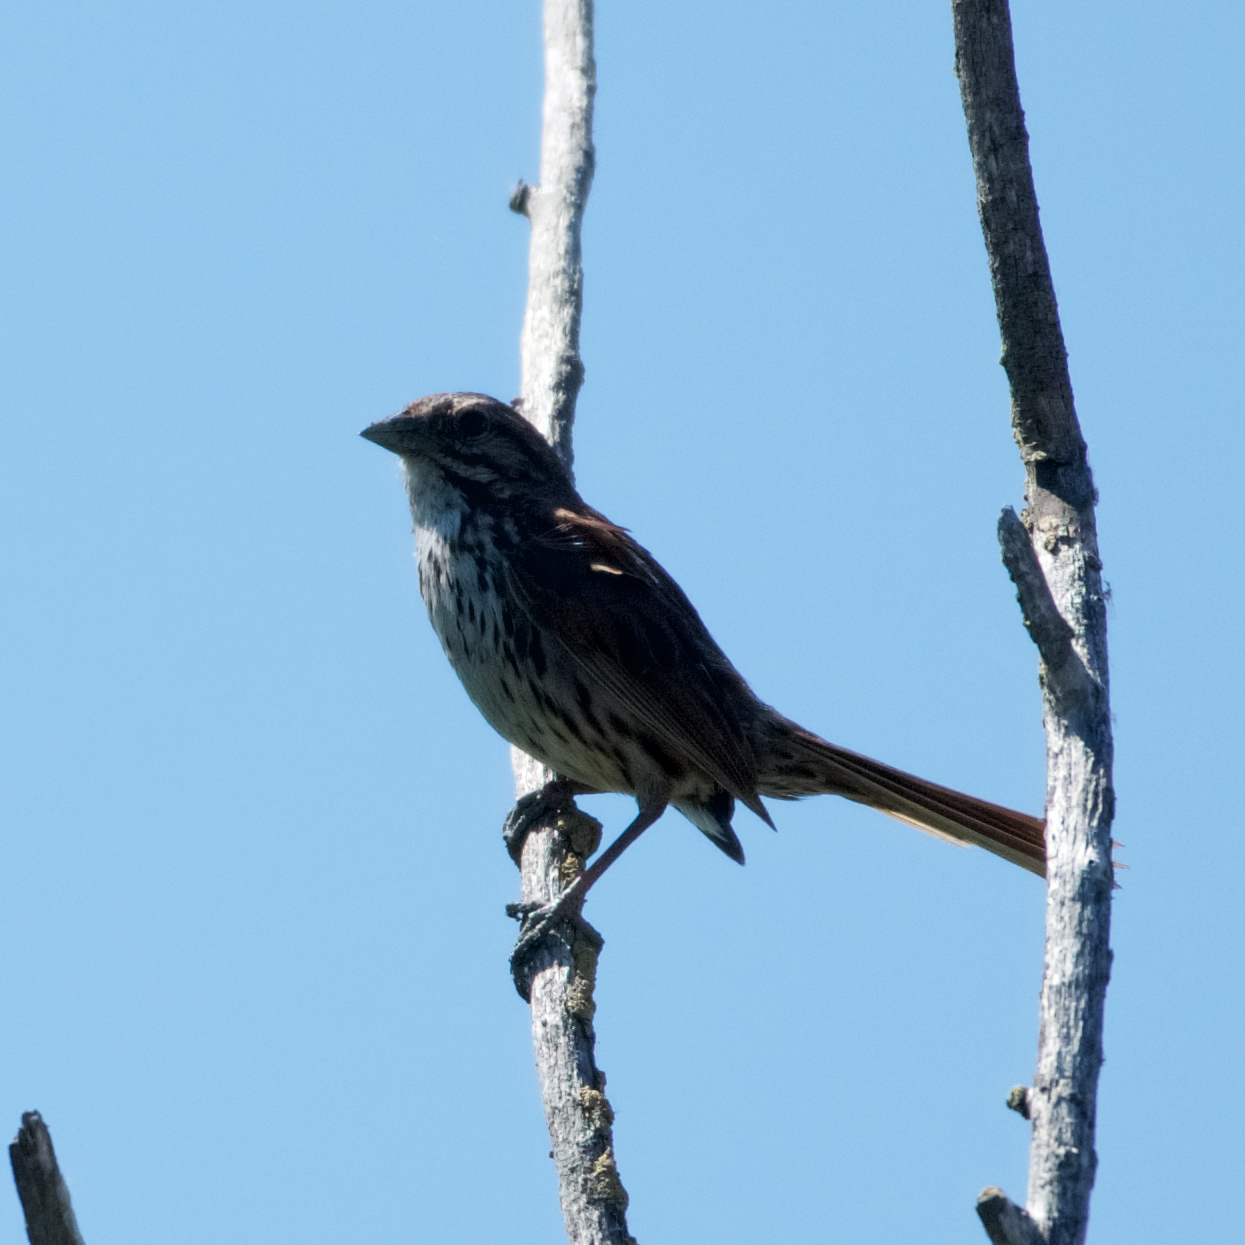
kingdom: Animalia
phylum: Chordata
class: Aves
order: Passeriformes
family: Passerellidae
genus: Melospiza
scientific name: Melospiza melodia
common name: Song sparrow
